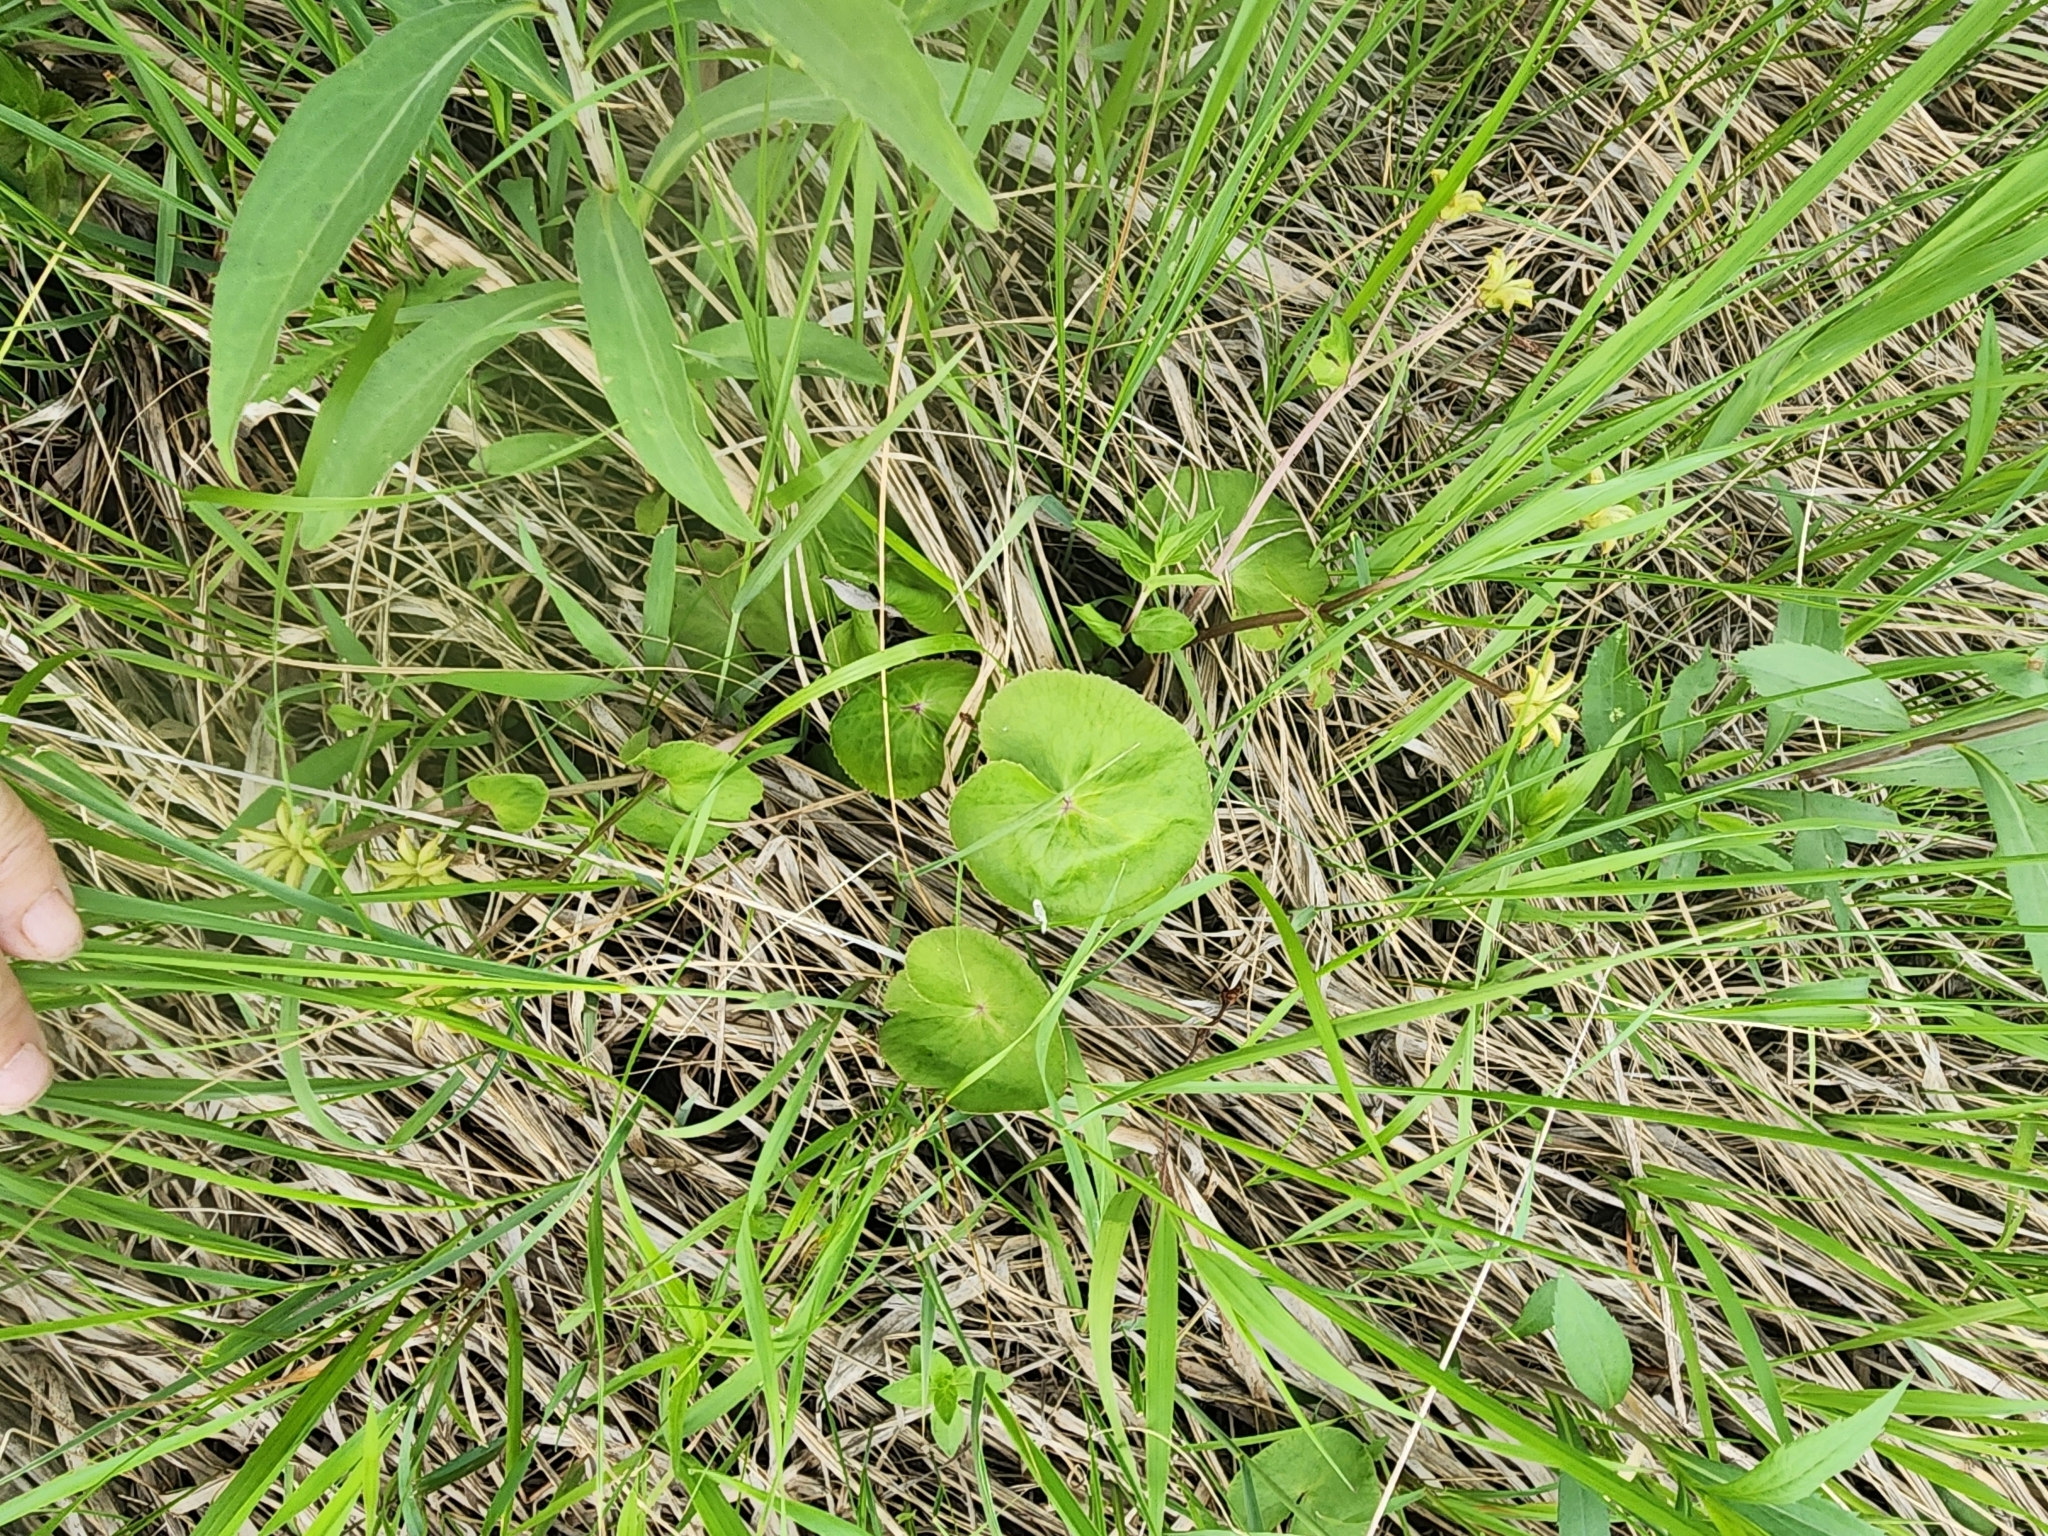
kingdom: Plantae
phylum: Tracheophyta
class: Magnoliopsida
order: Ranunculales
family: Ranunculaceae
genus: Caltha
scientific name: Caltha palustris
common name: Marsh marigold
